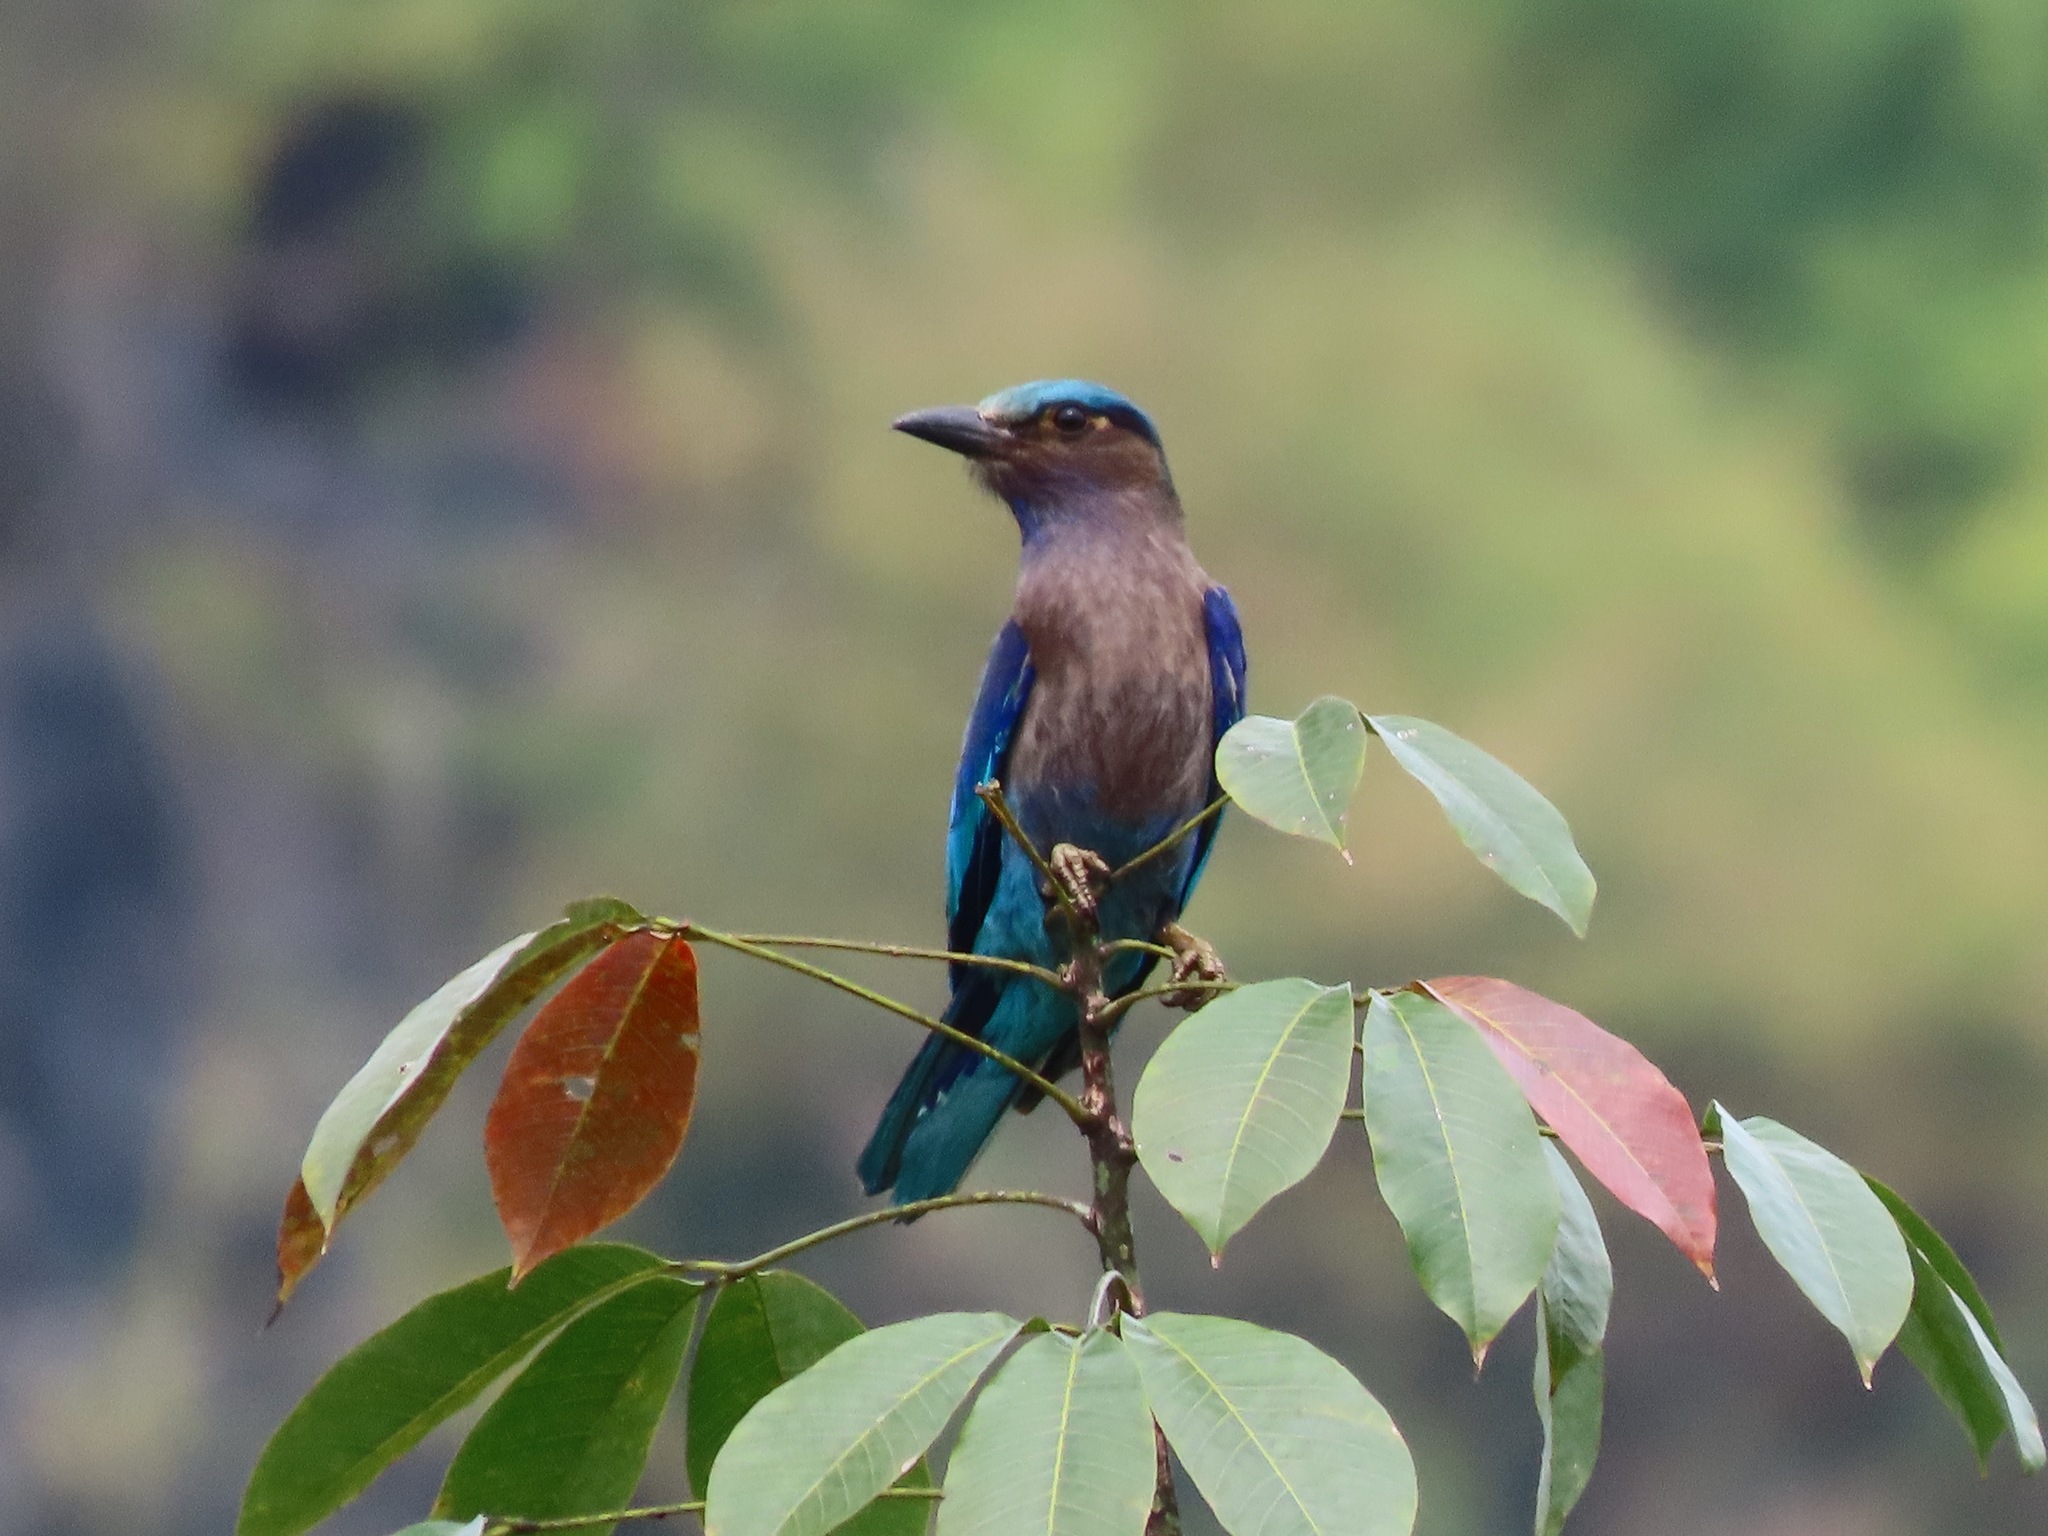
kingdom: Animalia
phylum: Chordata
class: Aves
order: Coraciiformes
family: Coraciidae
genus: Coracias
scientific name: Coracias affinis
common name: Indochinese roller
